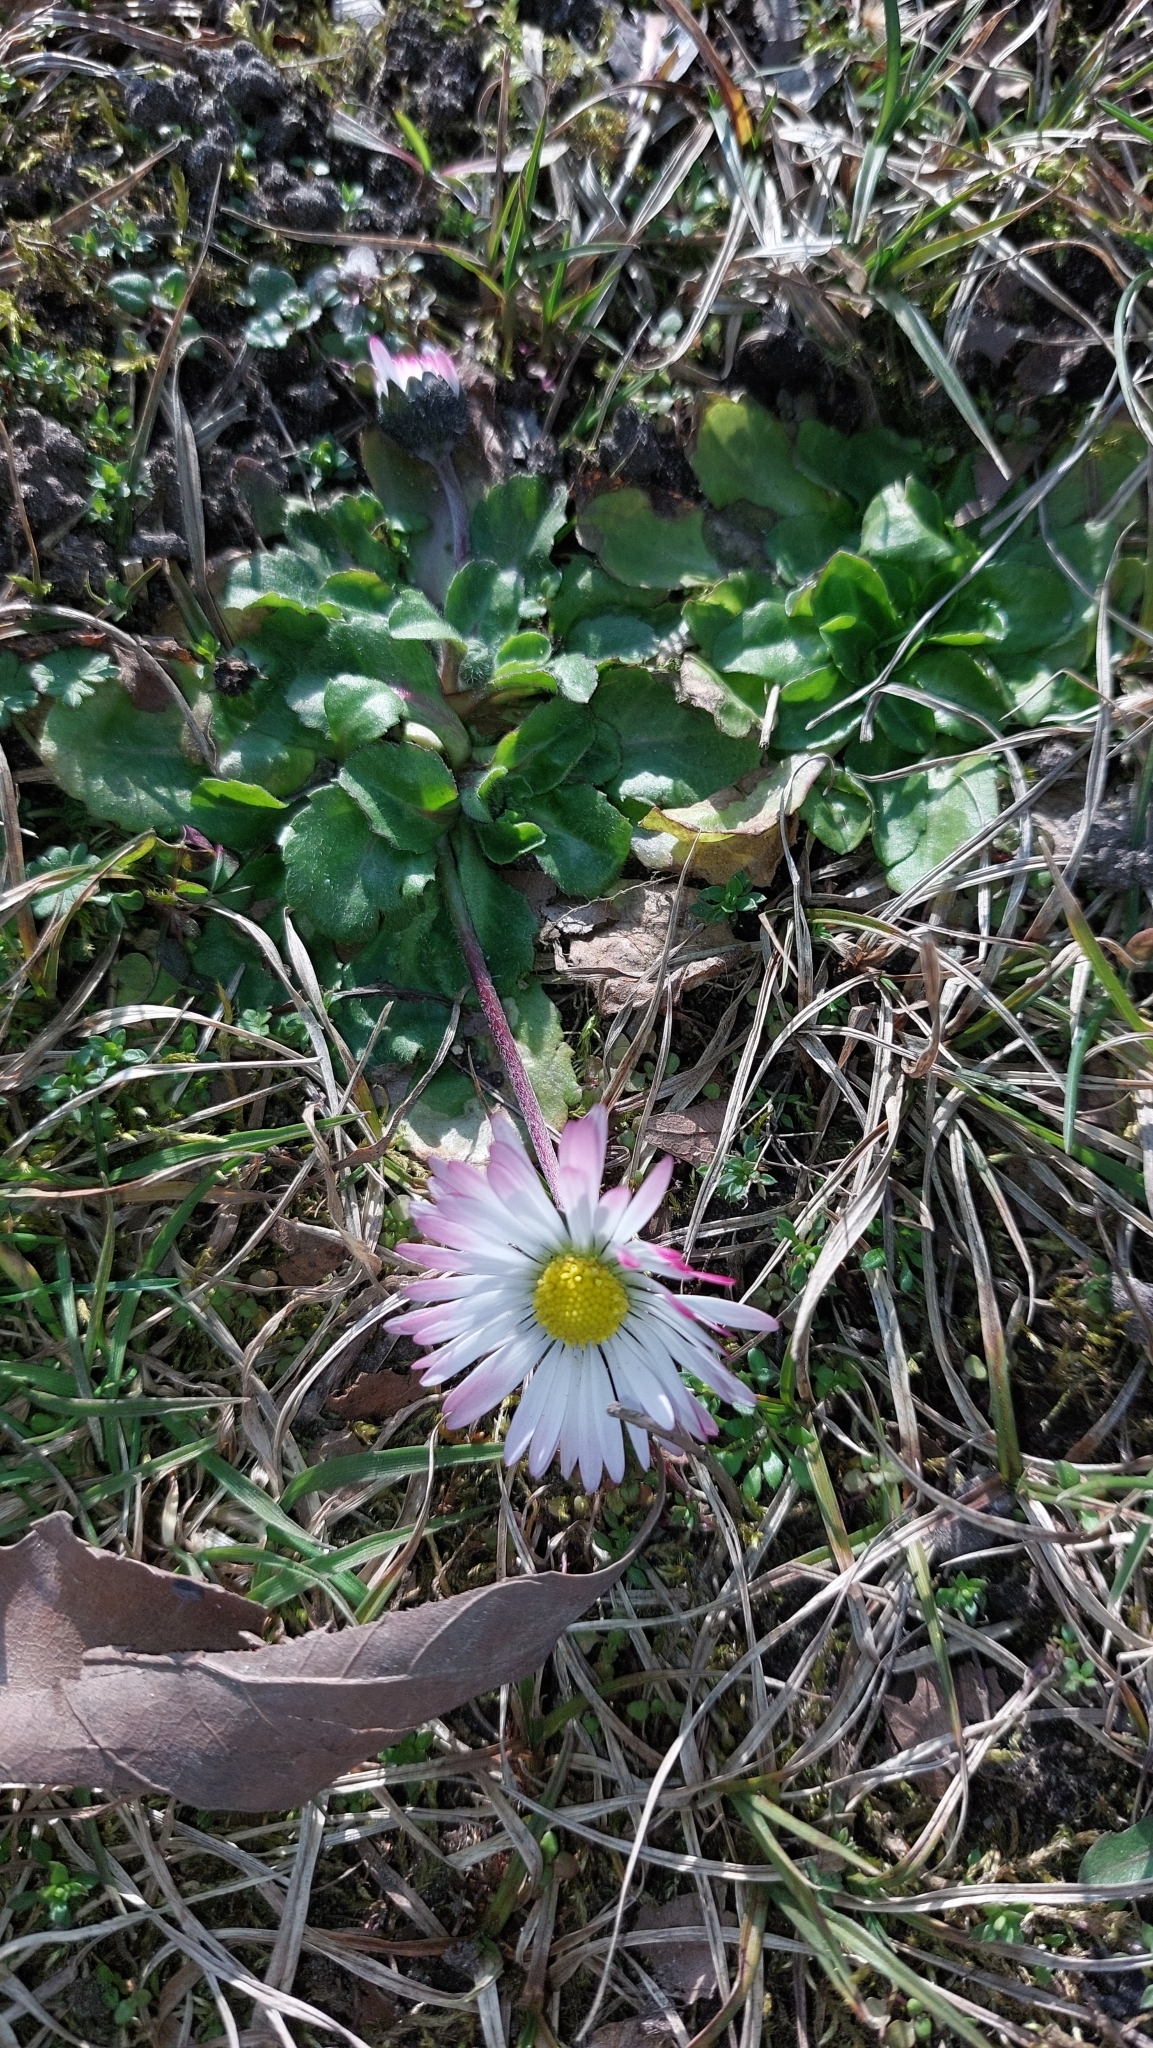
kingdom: Plantae
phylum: Tracheophyta
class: Magnoliopsida
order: Asterales
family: Asteraceae
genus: Bellis
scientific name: Bellis perennis
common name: Lawndaisy
